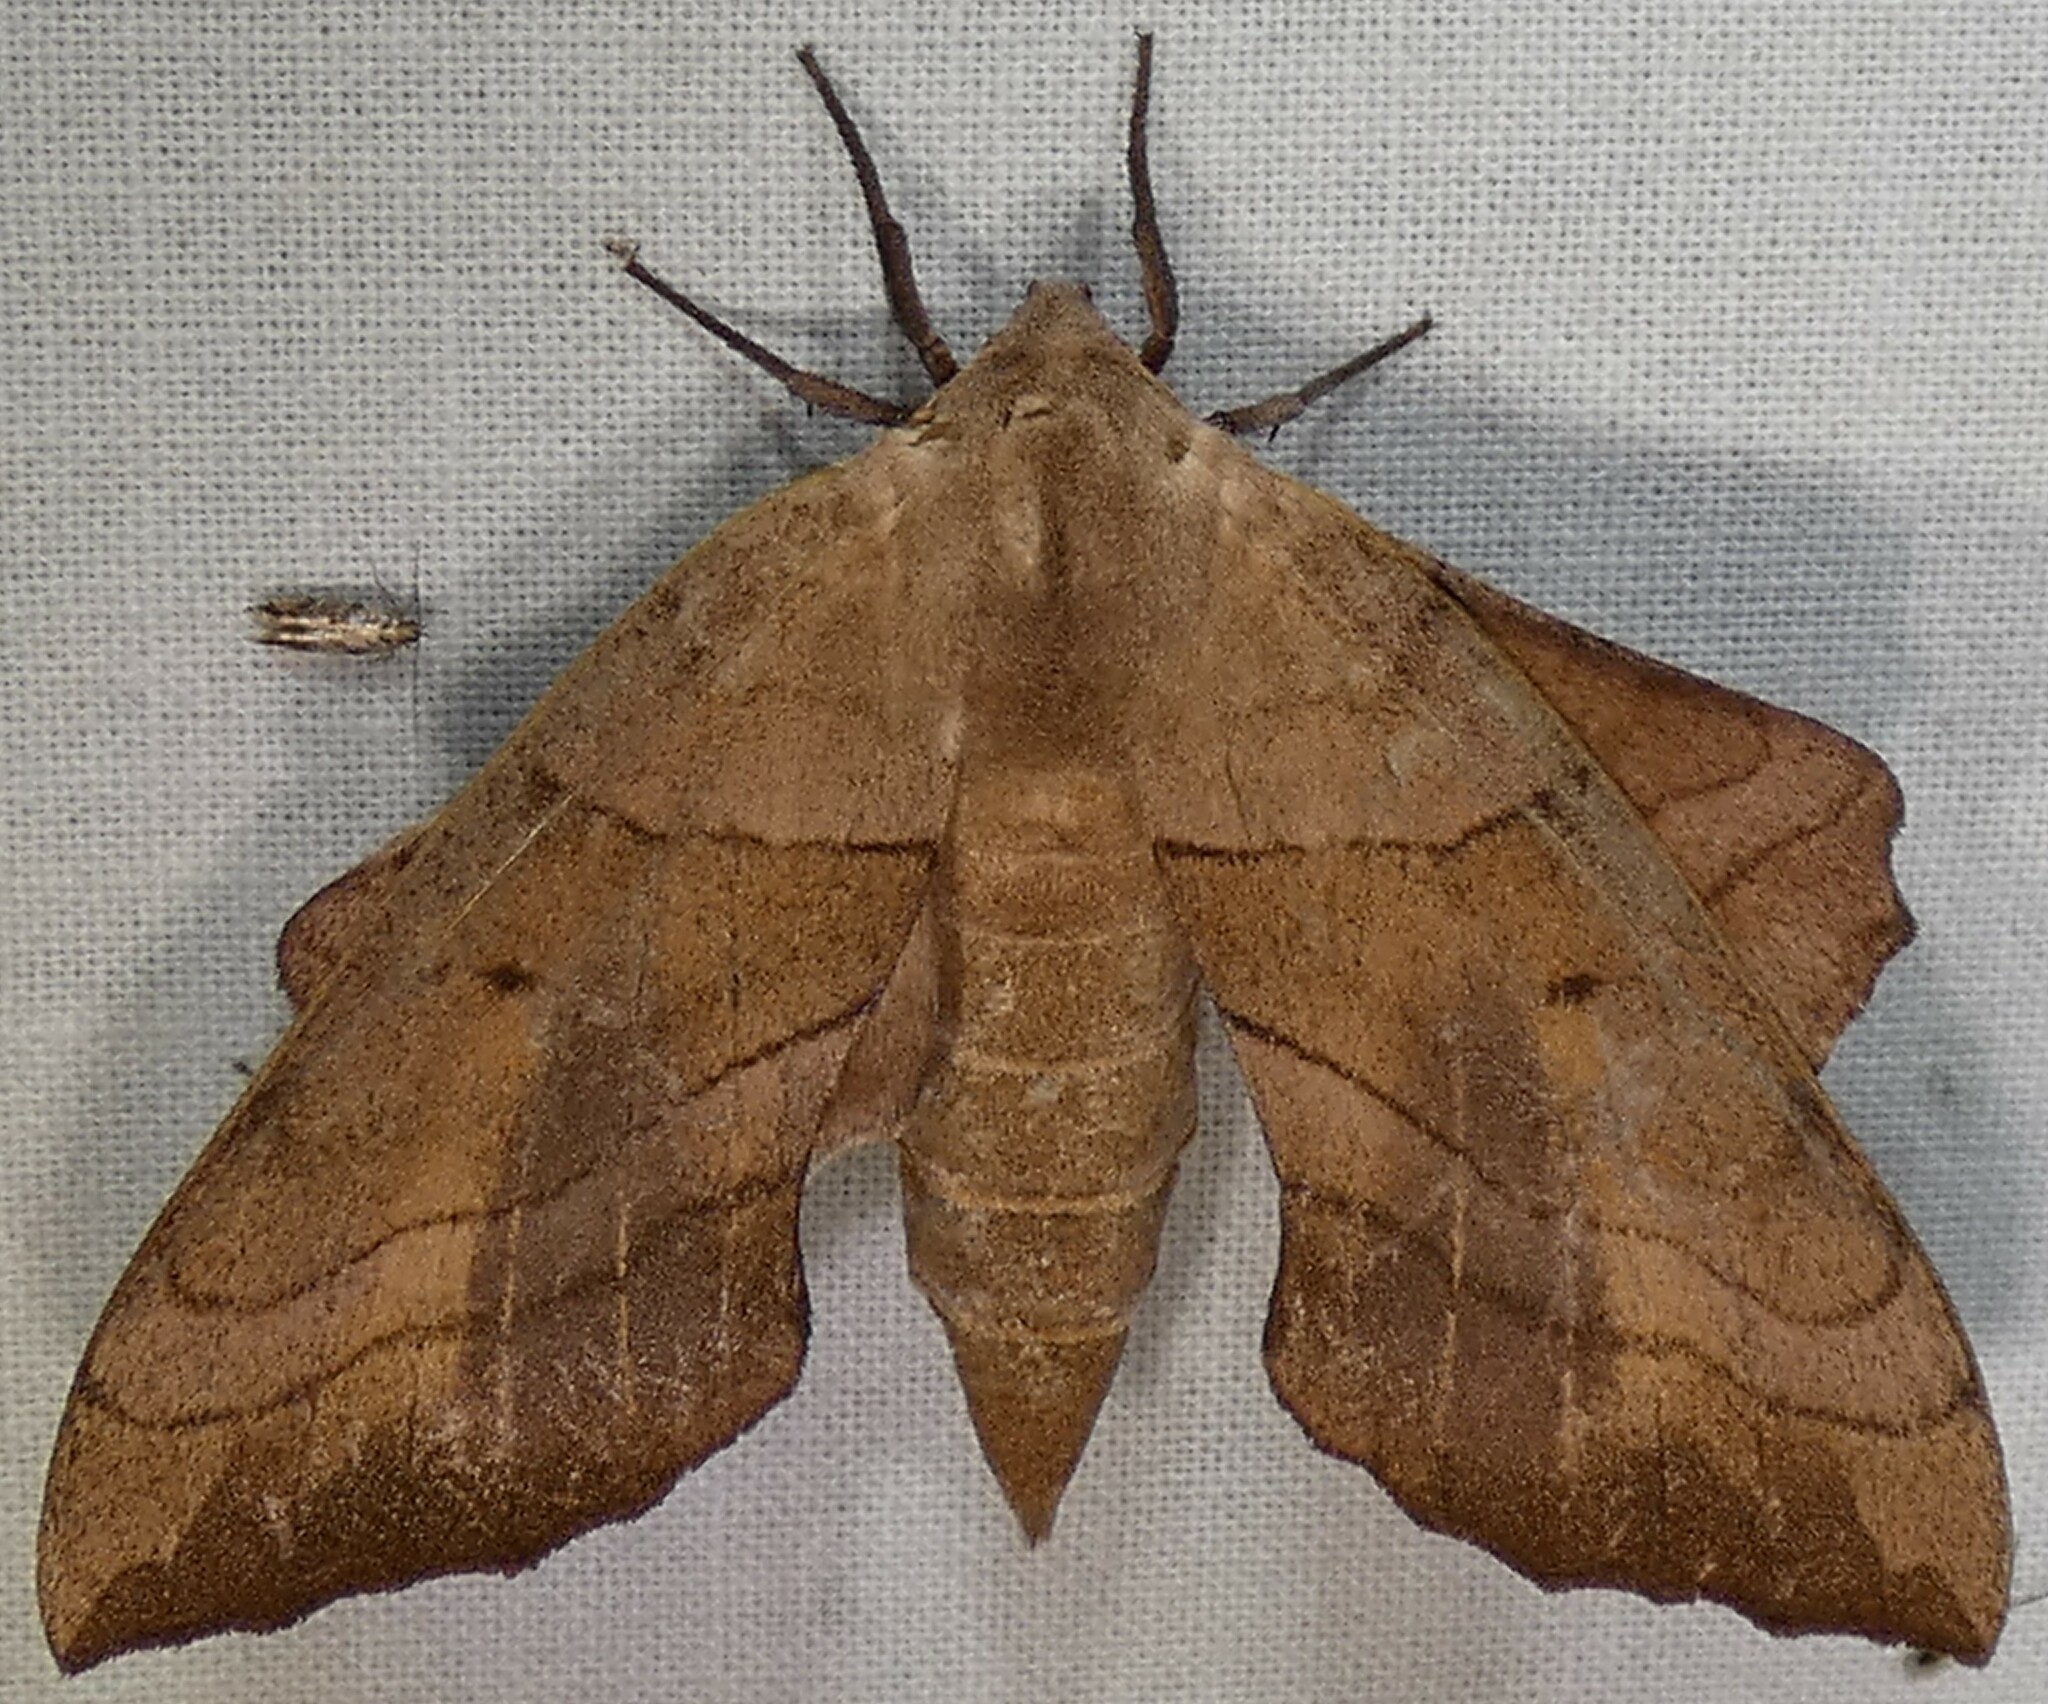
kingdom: Animalia
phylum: Arthropoda
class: Insecta
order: Lepidoptera
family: Sphingidae
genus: Amorpha
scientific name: Amorpha juglandis
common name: Walnut sphinx
